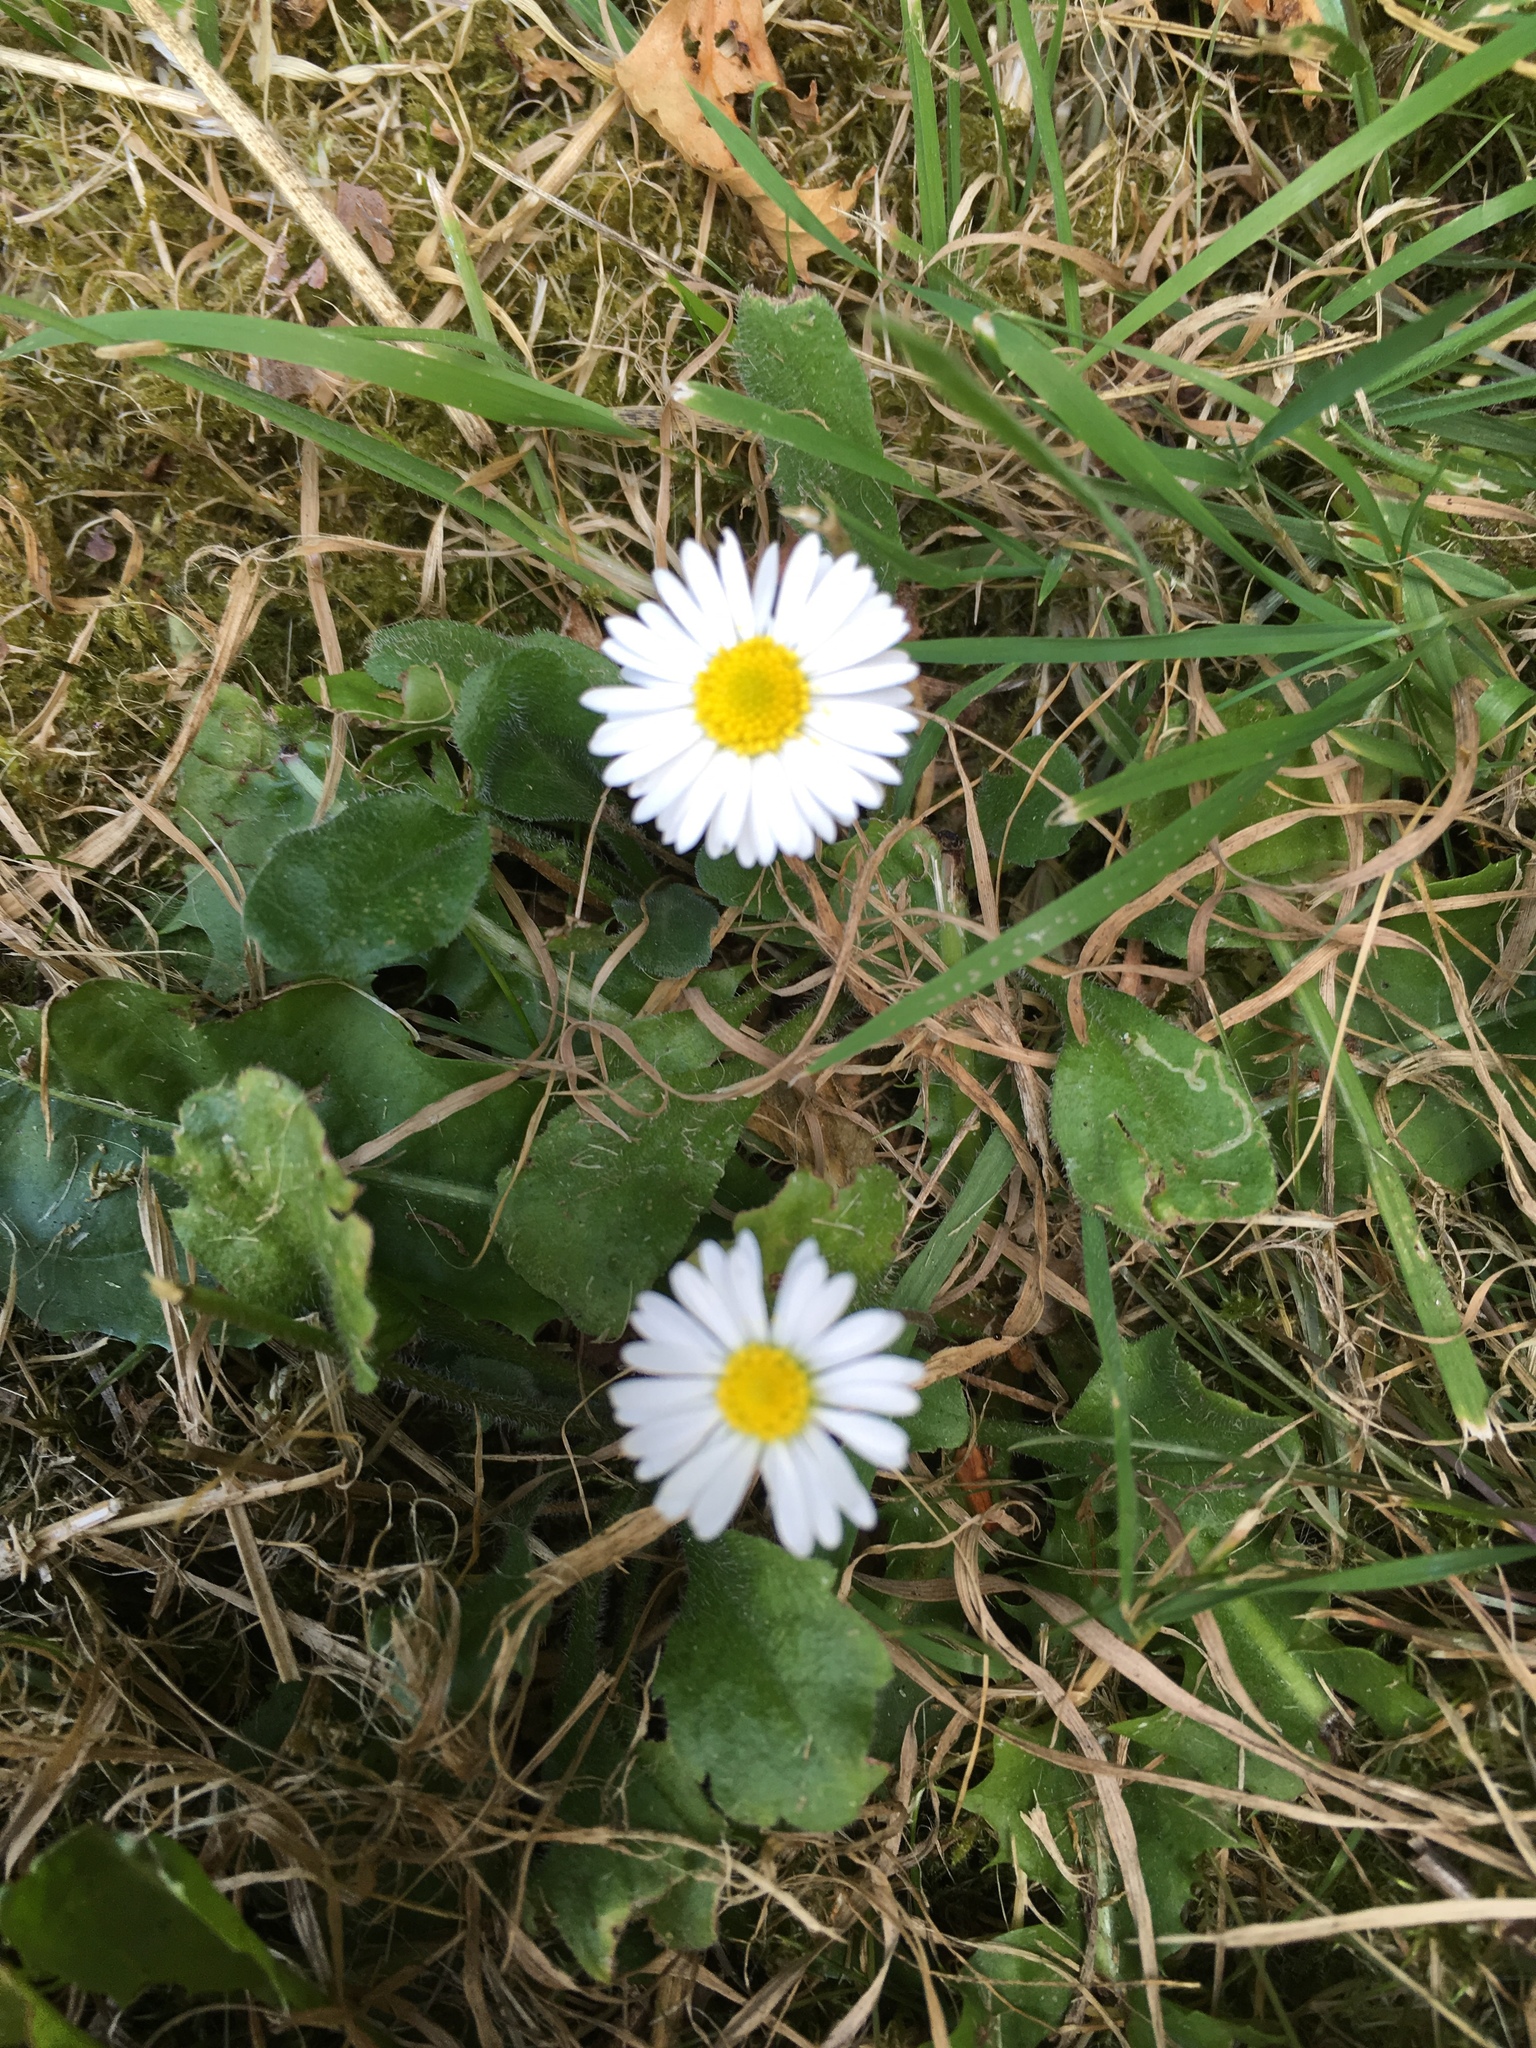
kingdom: Plantae
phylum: Tracheophyta
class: Magnoliopsida
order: Asterales
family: Asteraceae
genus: Bellis
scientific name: Bellis perennis
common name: Lawndaisy
